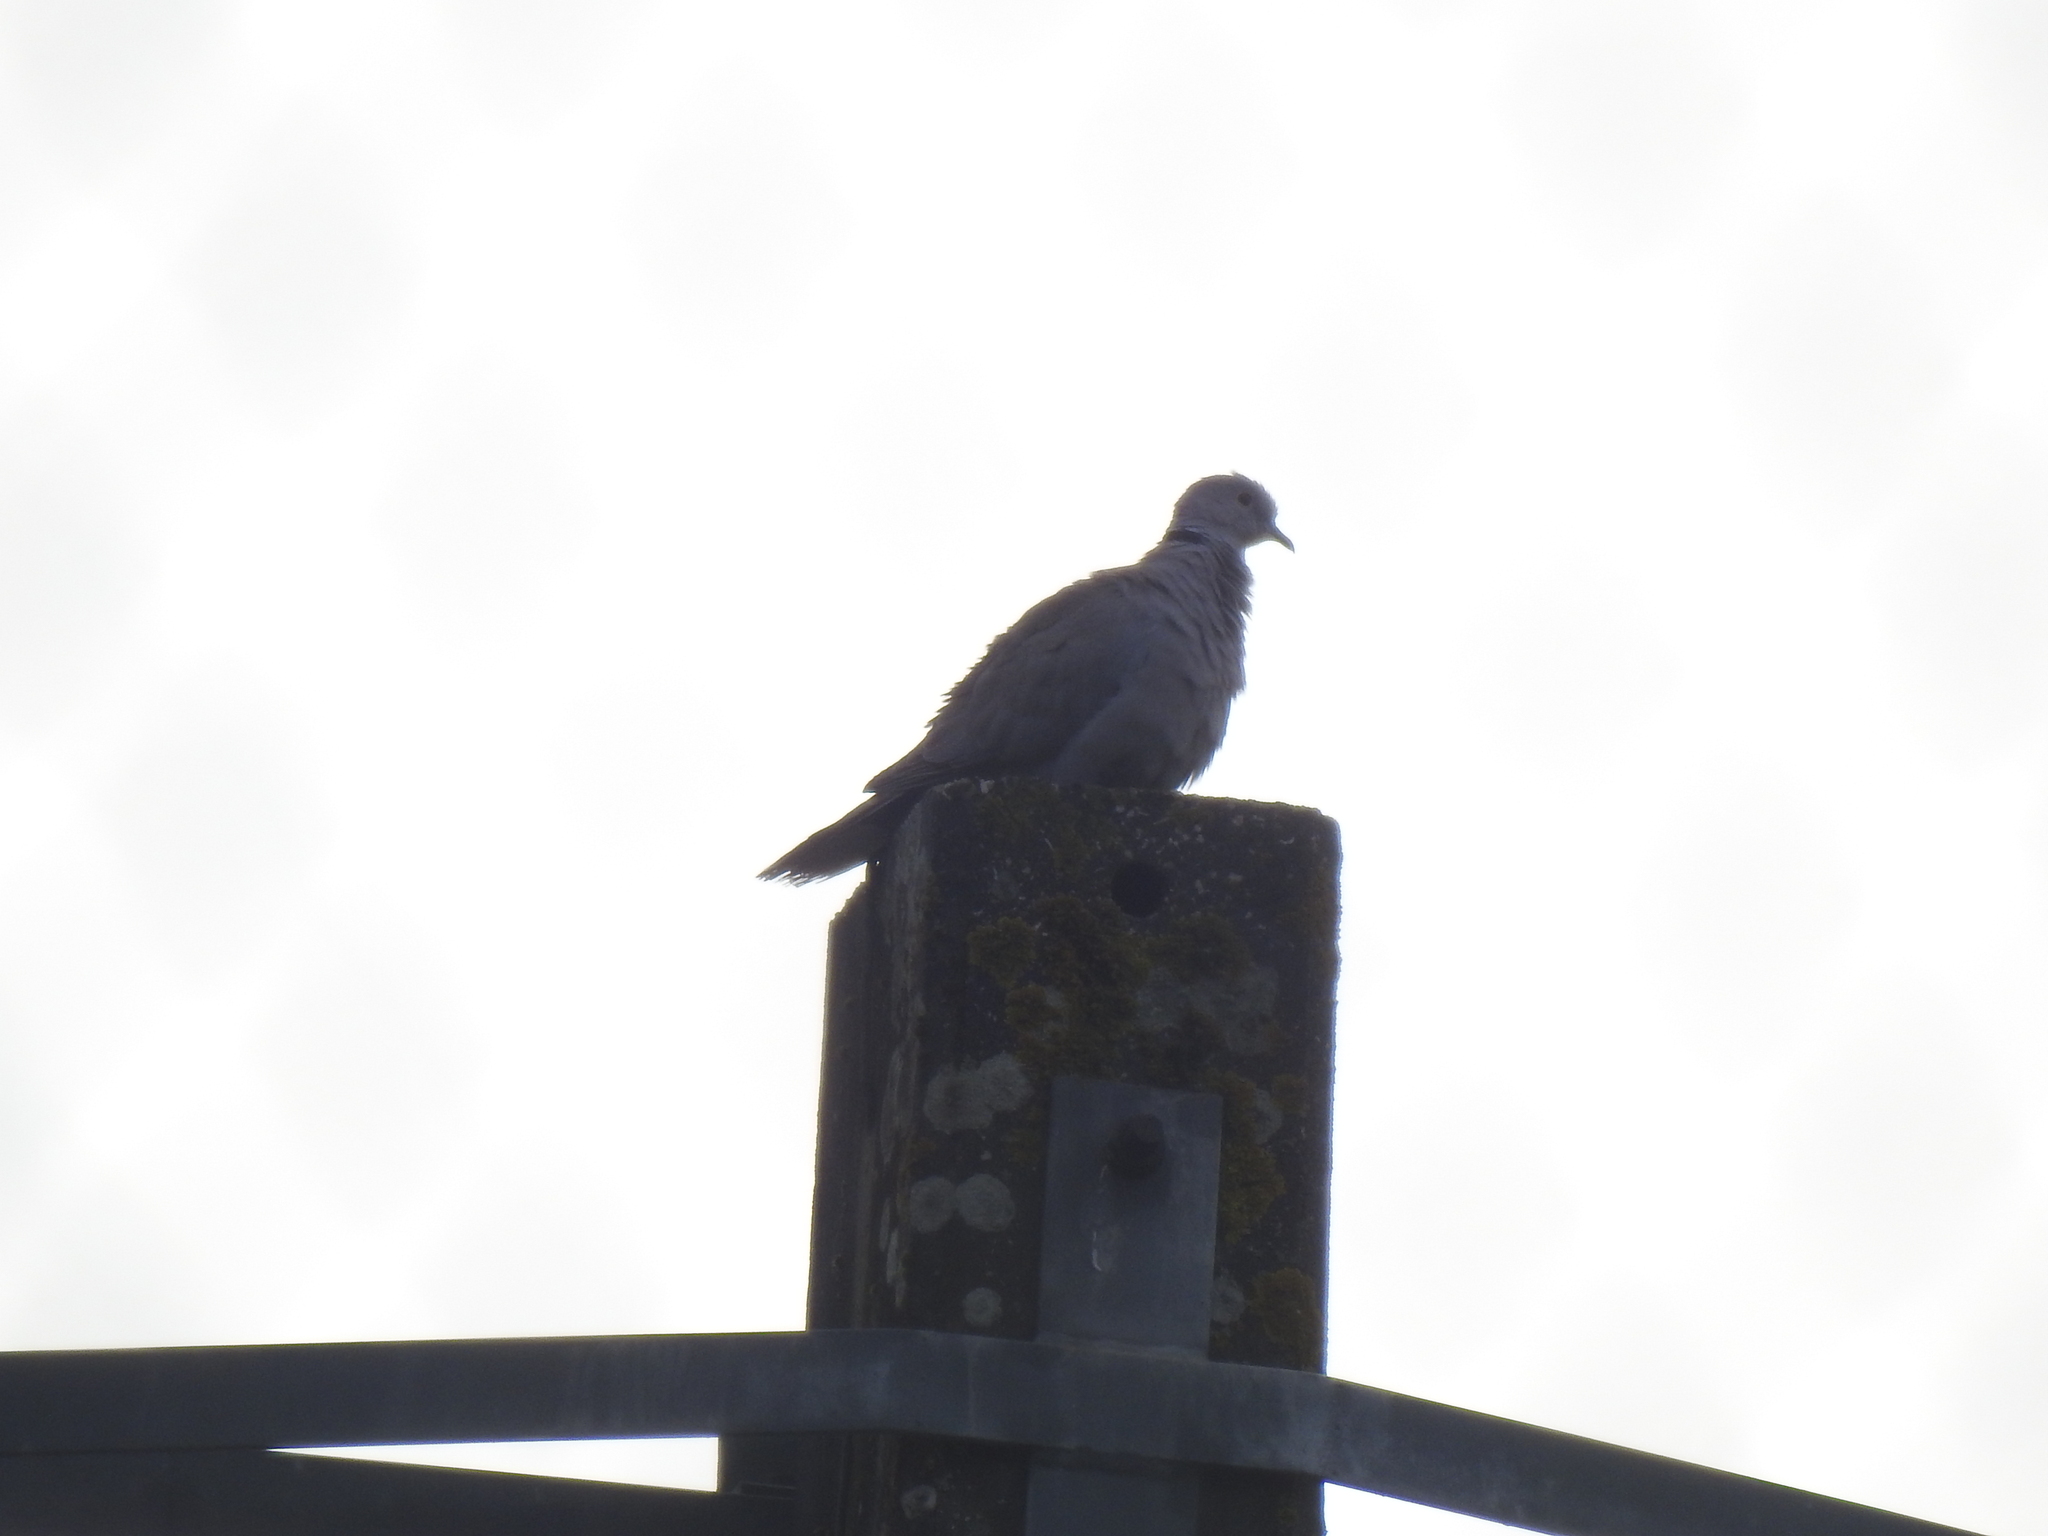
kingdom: Animalia
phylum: Chordata
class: Aves
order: Columbiformes
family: Columbidae
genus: Streptopelia
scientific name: Streptopelia decaocto
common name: Eurasian collared dove
